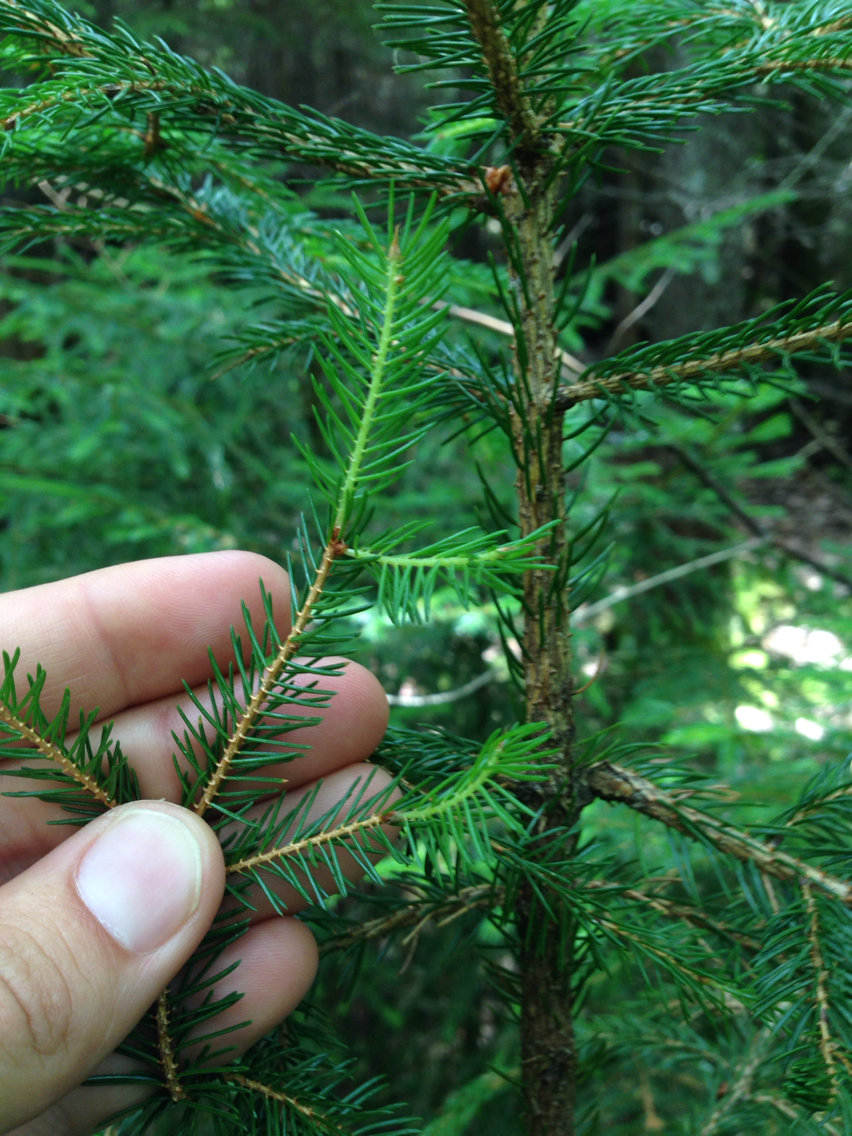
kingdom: Plantae
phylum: Tracheophyta
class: Pinopsida
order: Pinales
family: Pinaceae
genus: Picea
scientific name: Picea rubens
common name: Red spruce
